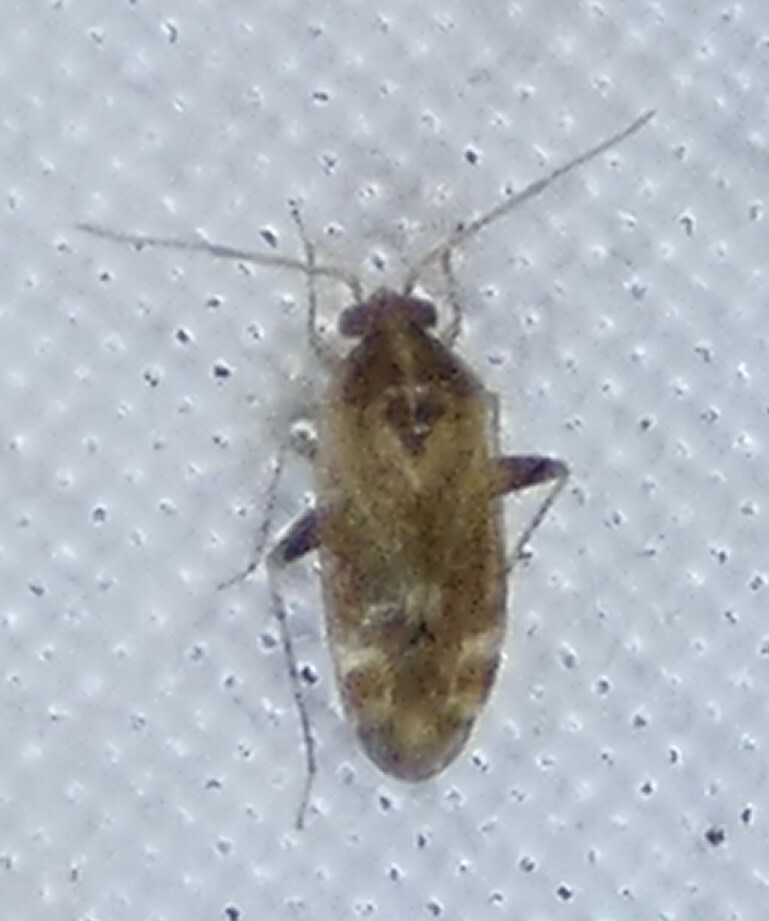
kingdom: Animalia
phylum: Arthropoda
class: Insecta
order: Hemiptera
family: Miridae
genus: Hamatophylus
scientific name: Hamatophylus guttulosus
